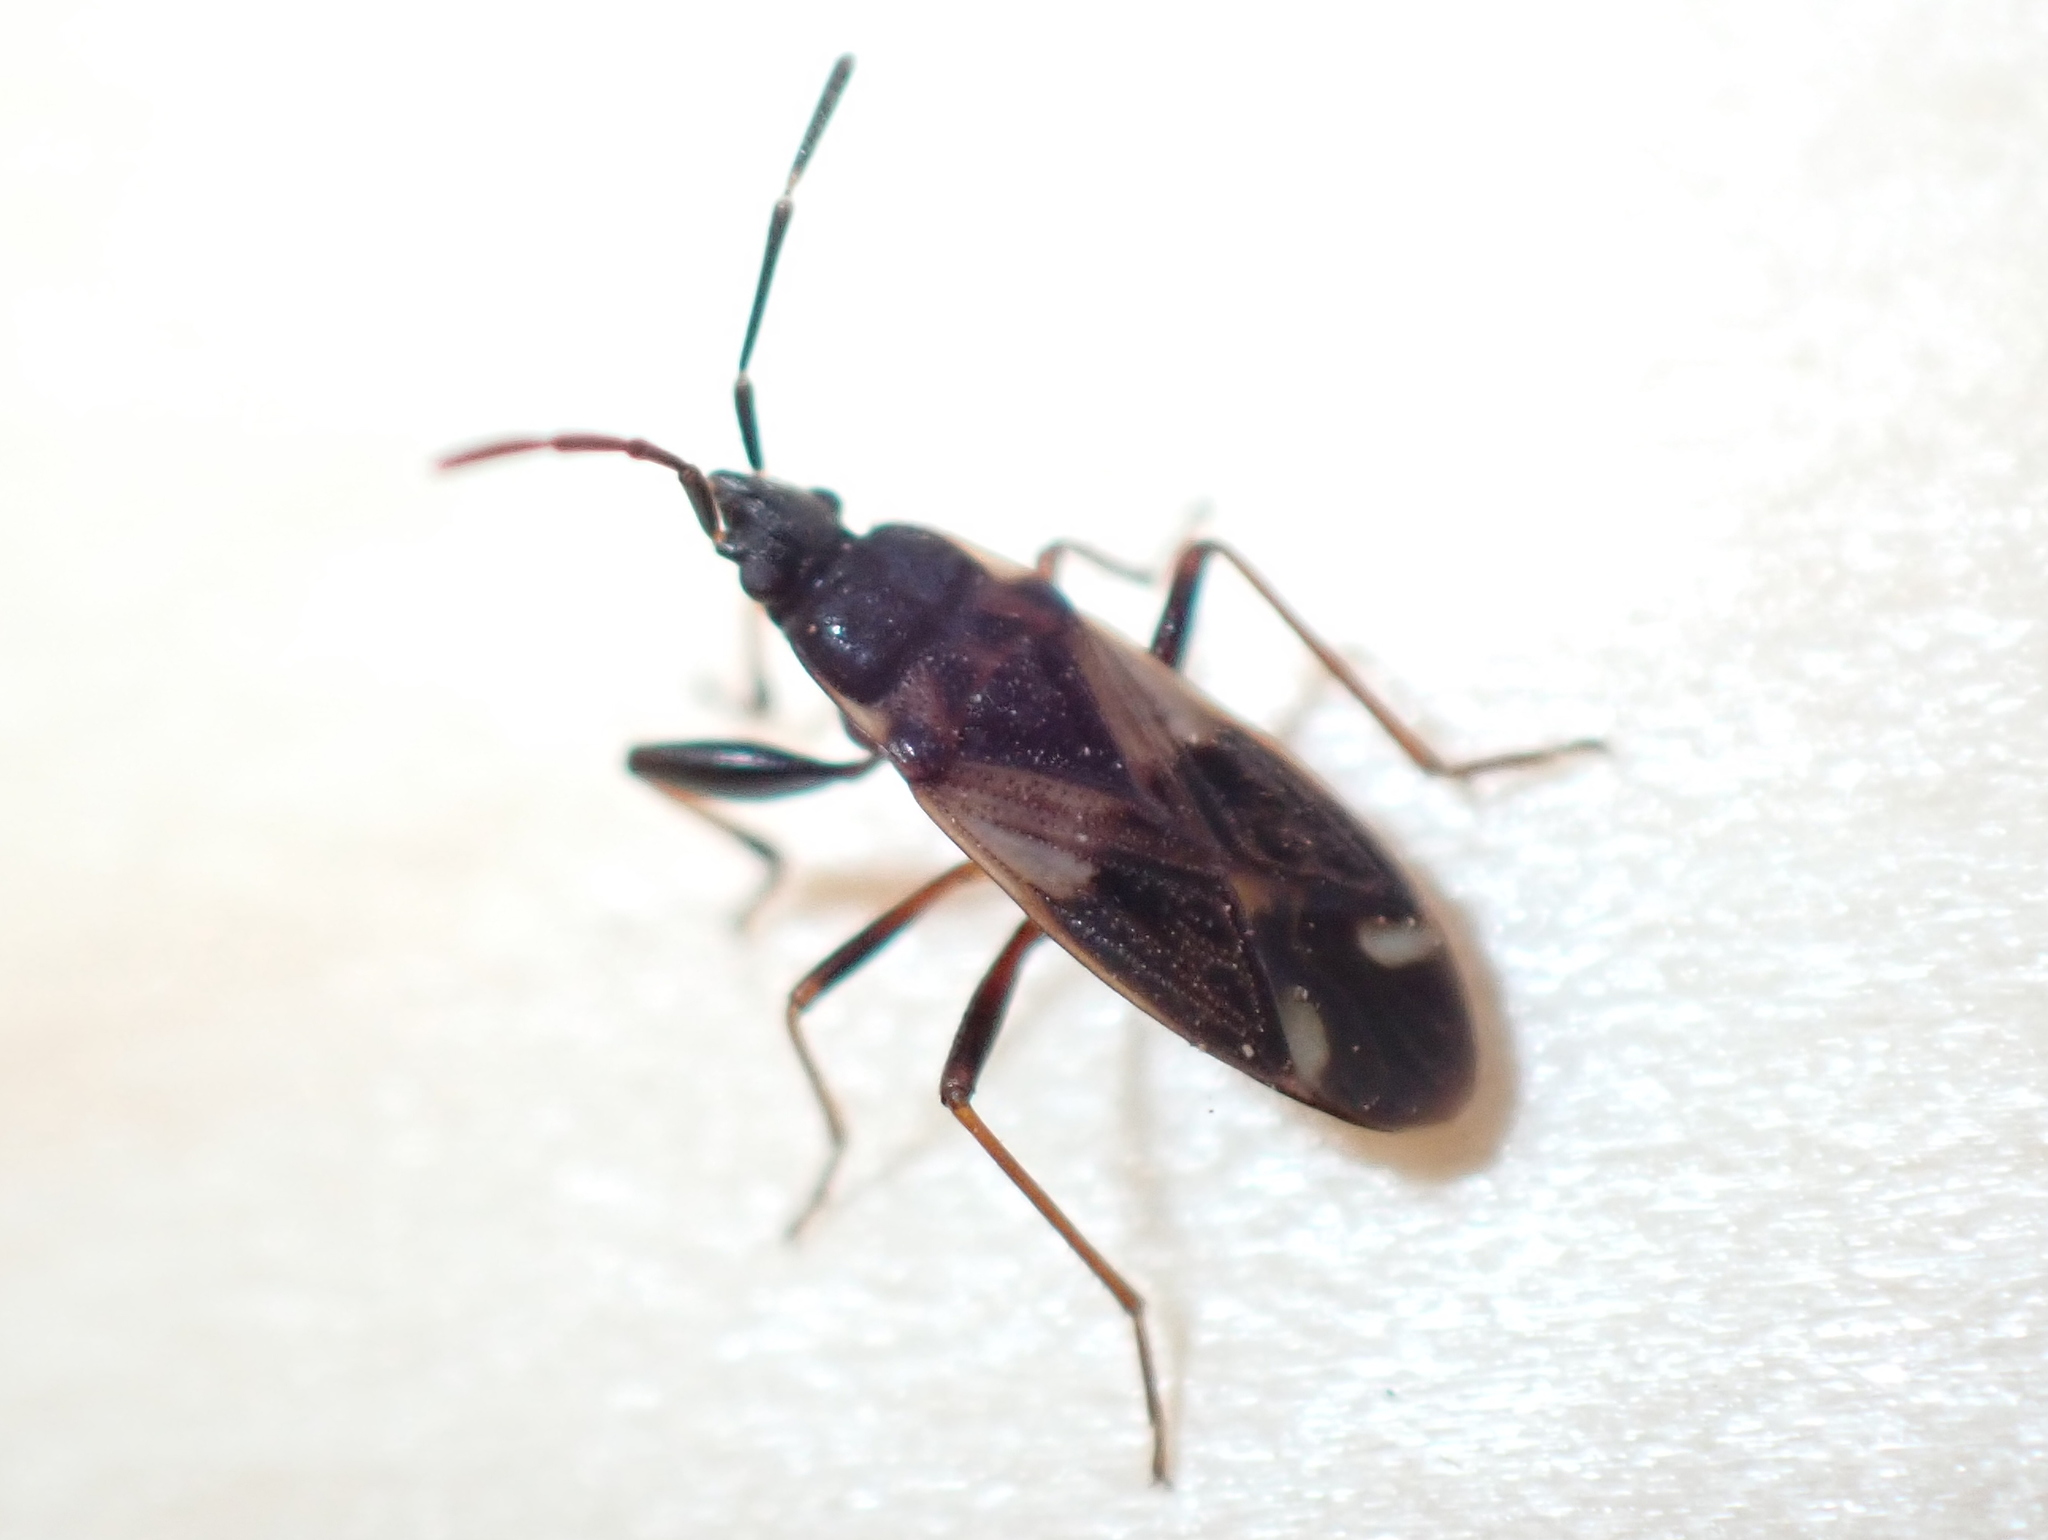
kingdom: Animalia
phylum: Arthropoda
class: Insecta
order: Hemiptera
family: Rhyparochromidae
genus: Eremocoris
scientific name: Eremocoris borealis
